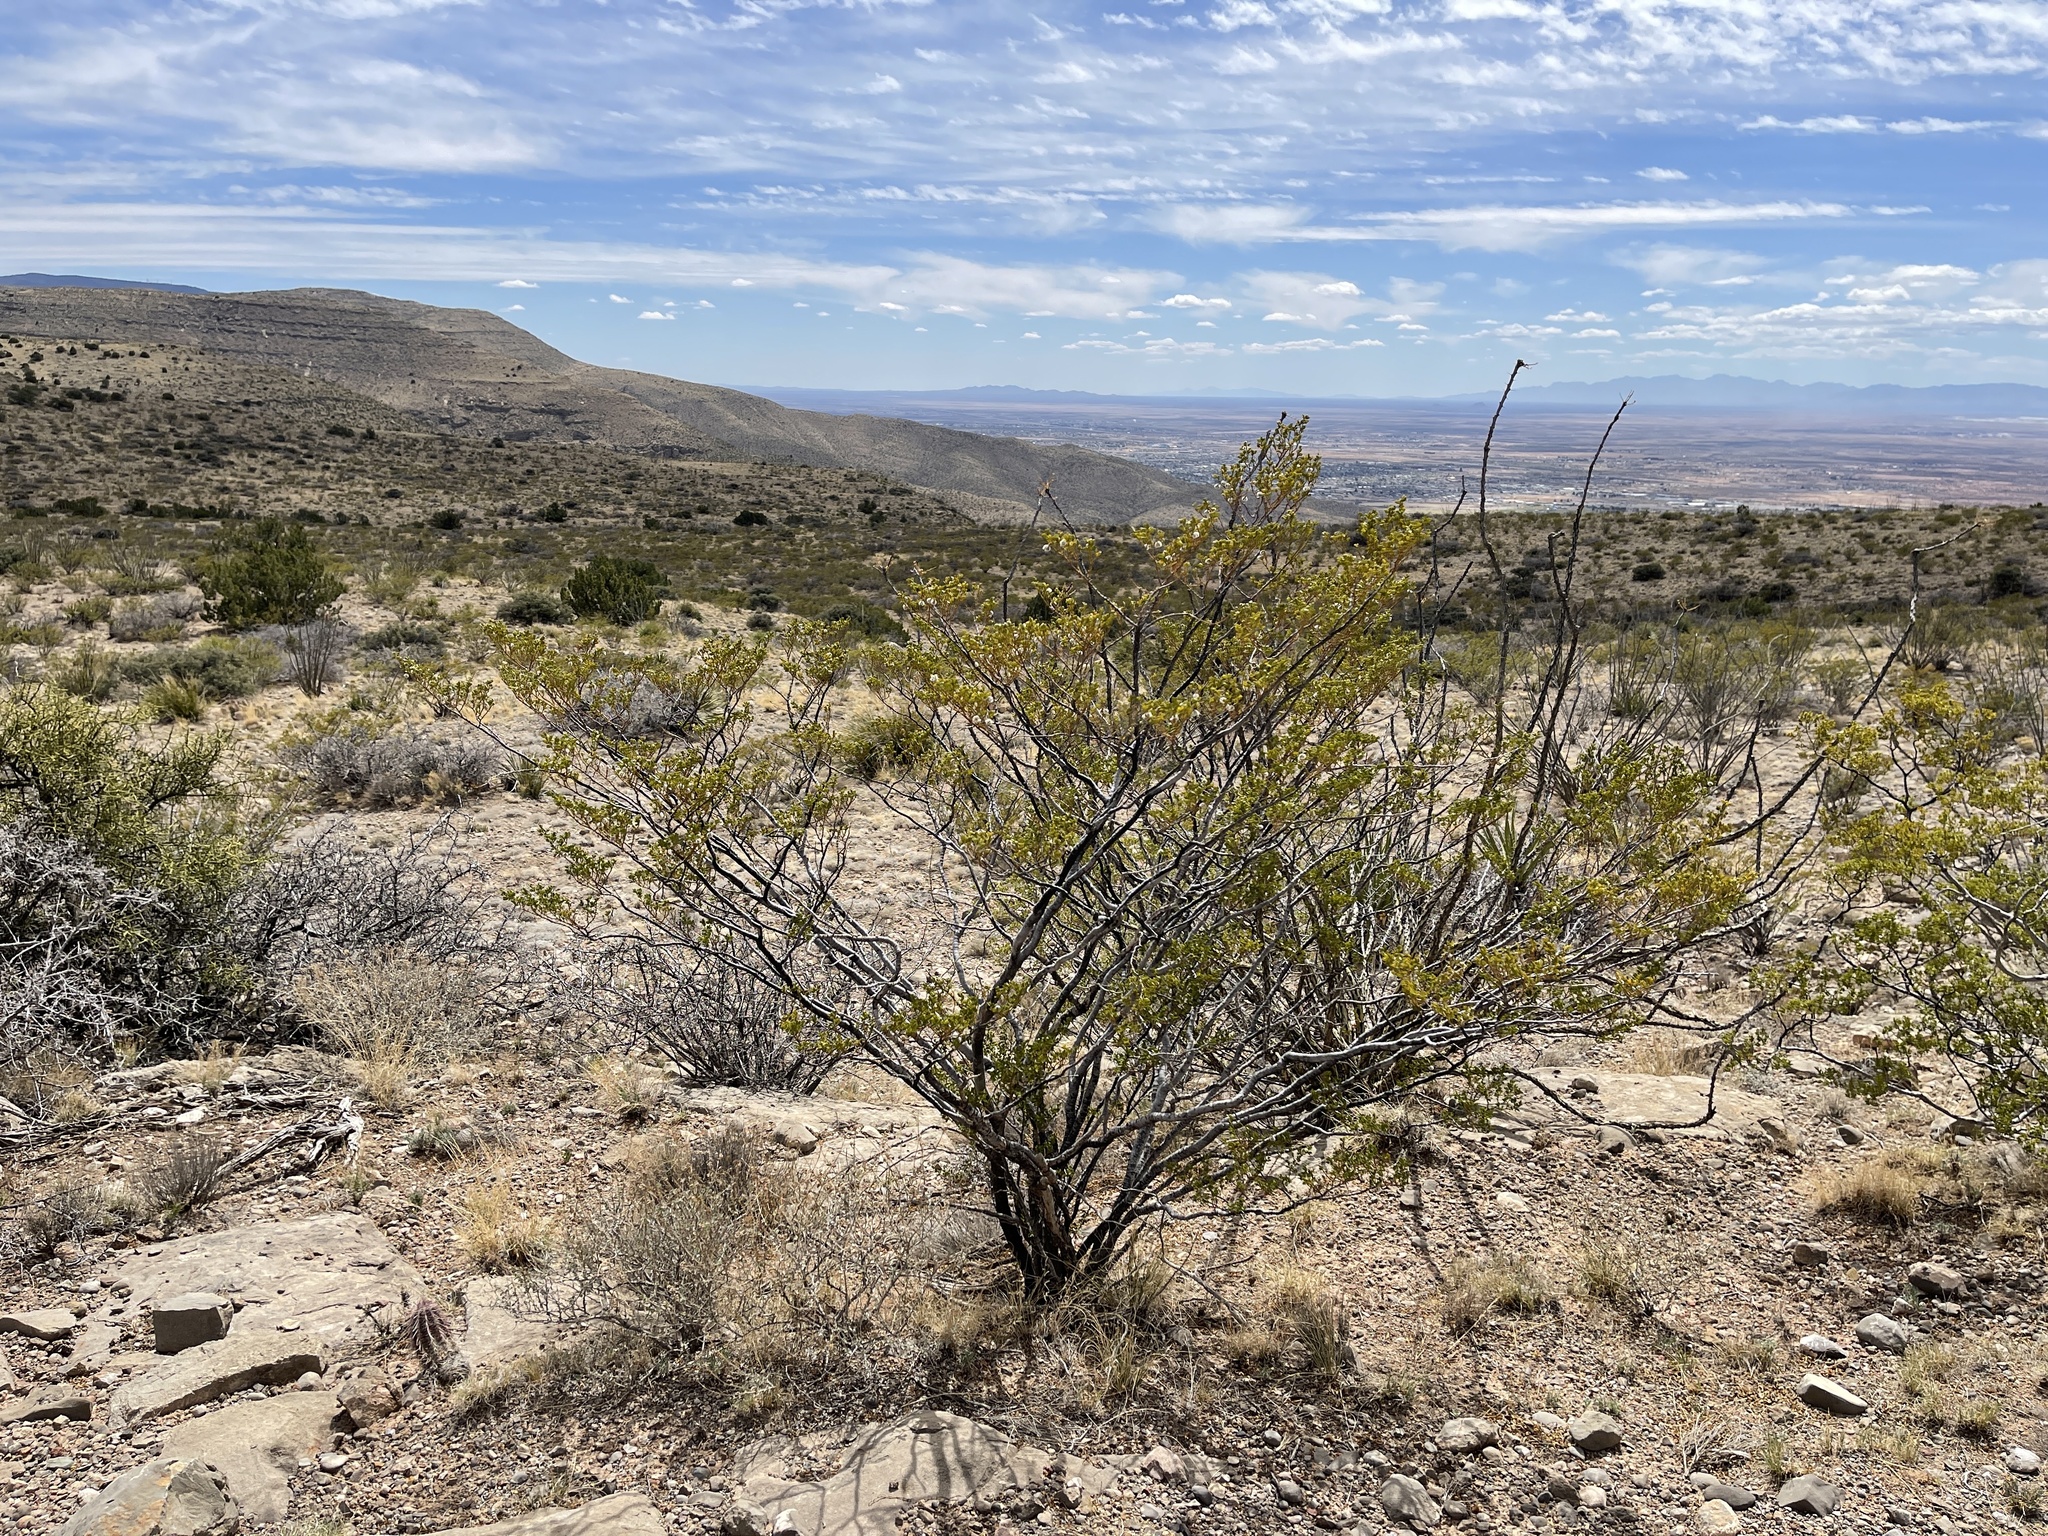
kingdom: Plantae
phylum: Tracheophyta
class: Magnoliopsida
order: Zygophyllales
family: Zygophyllaceae
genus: Larrea
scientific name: Larrea tridentata
